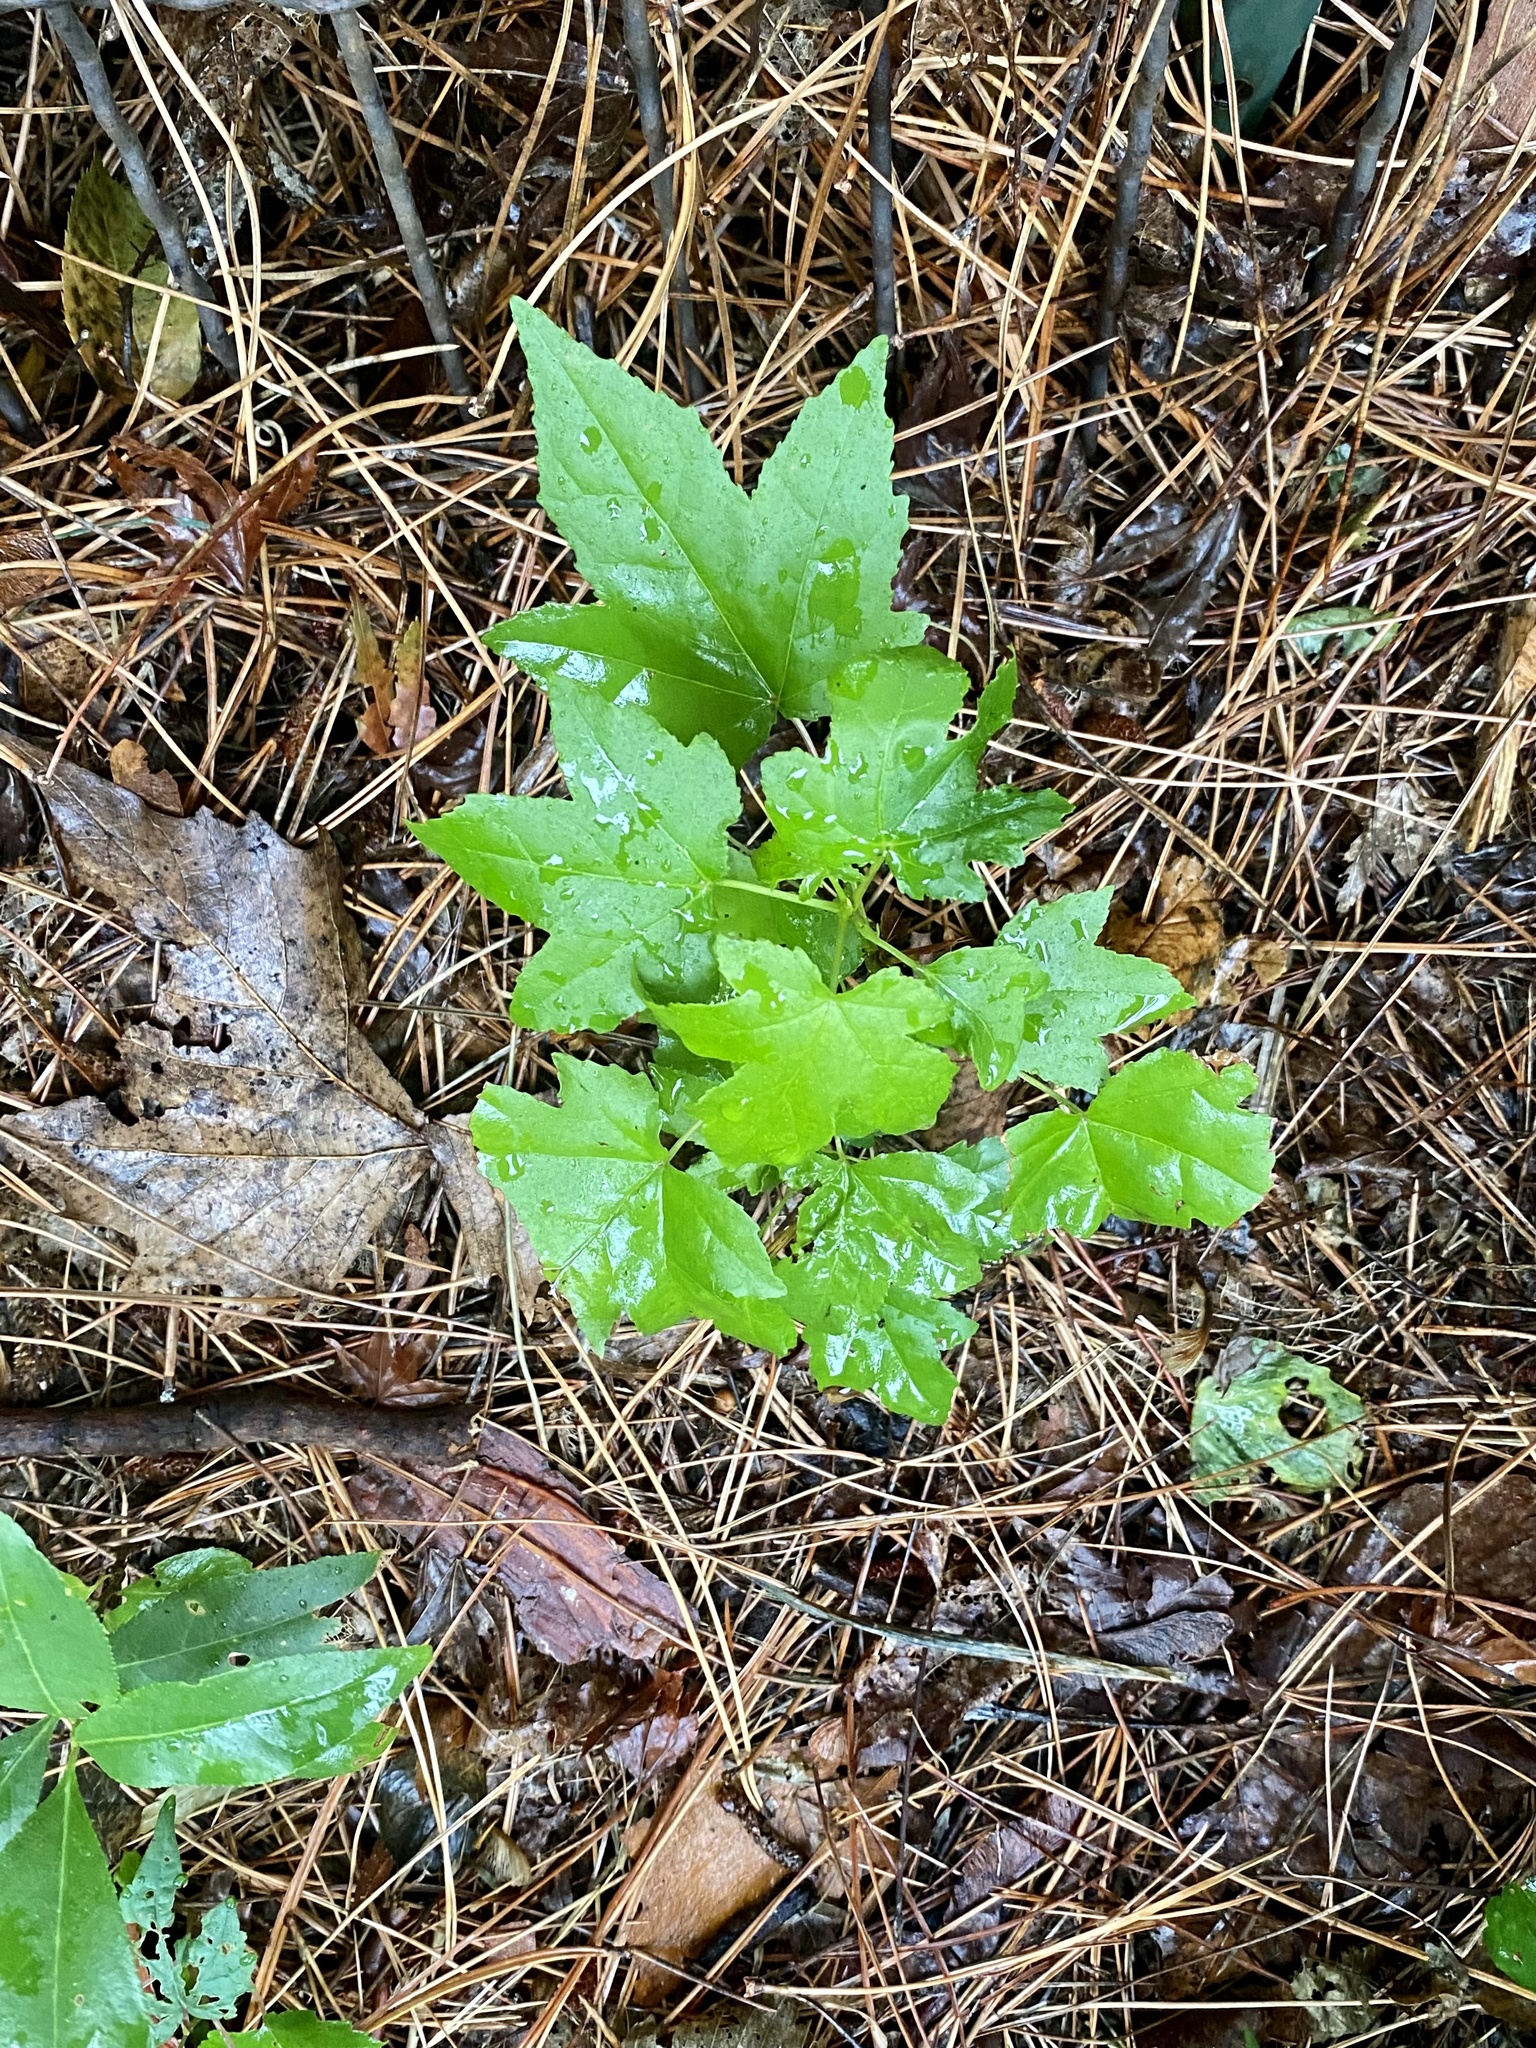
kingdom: Plantae
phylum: Tracheophyta
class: Magnoliopsida
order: Saxifragales
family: Altingiaceae
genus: Liquidambar
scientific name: Liquidambar styraciflua
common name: Sweet gum
